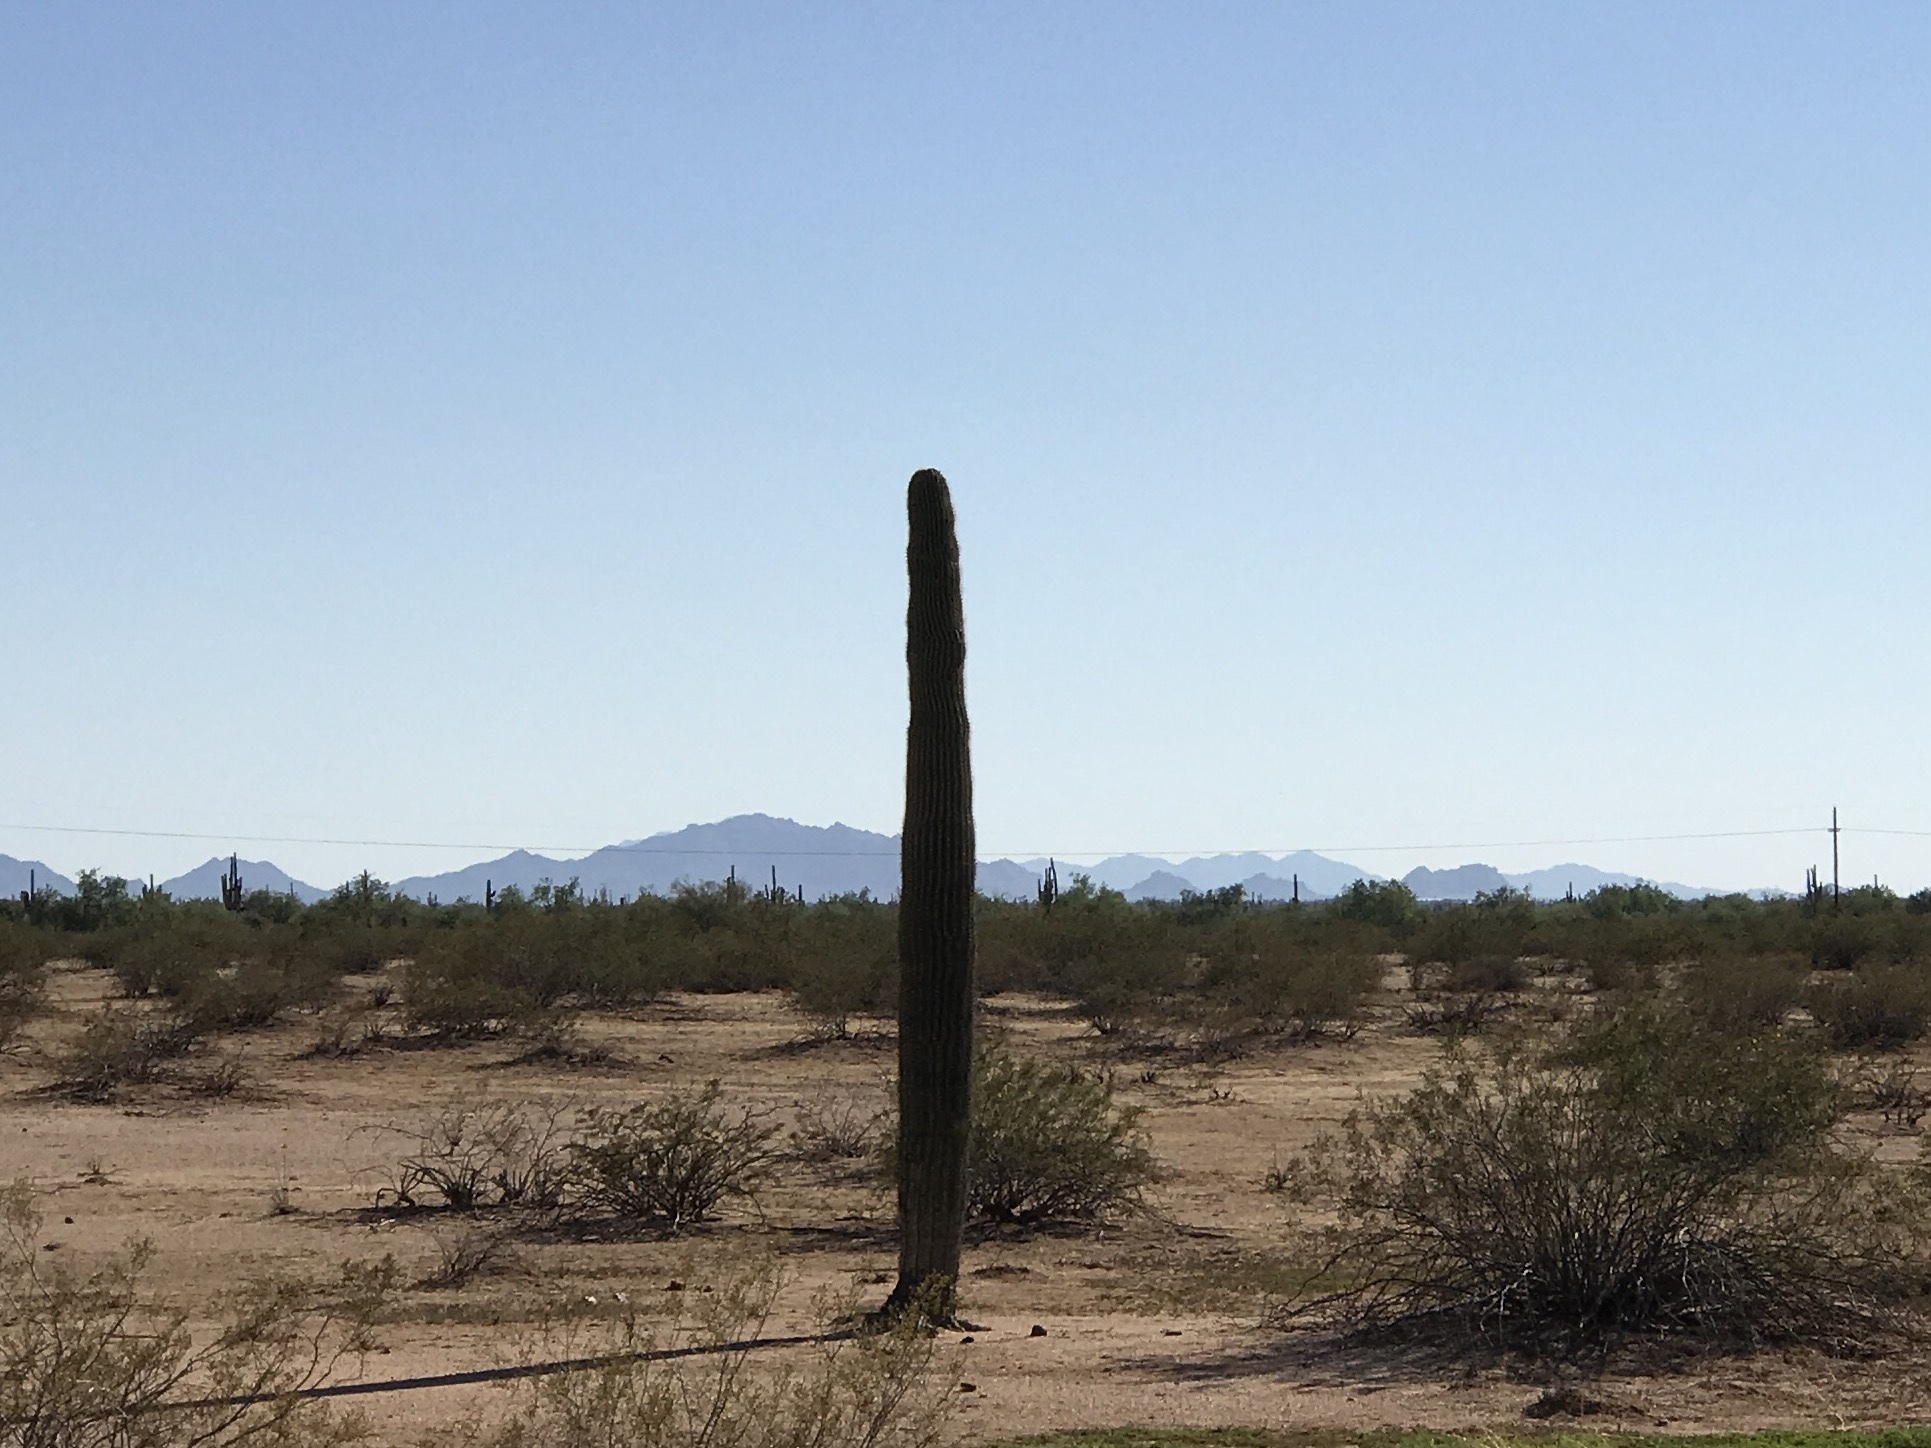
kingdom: Plantae
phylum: Tracheophyta
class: Magnoliopsida
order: Caryophyllales
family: Cactaceae
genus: Carnegiea
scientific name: Carnegiea gigantea
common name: Saguaro
